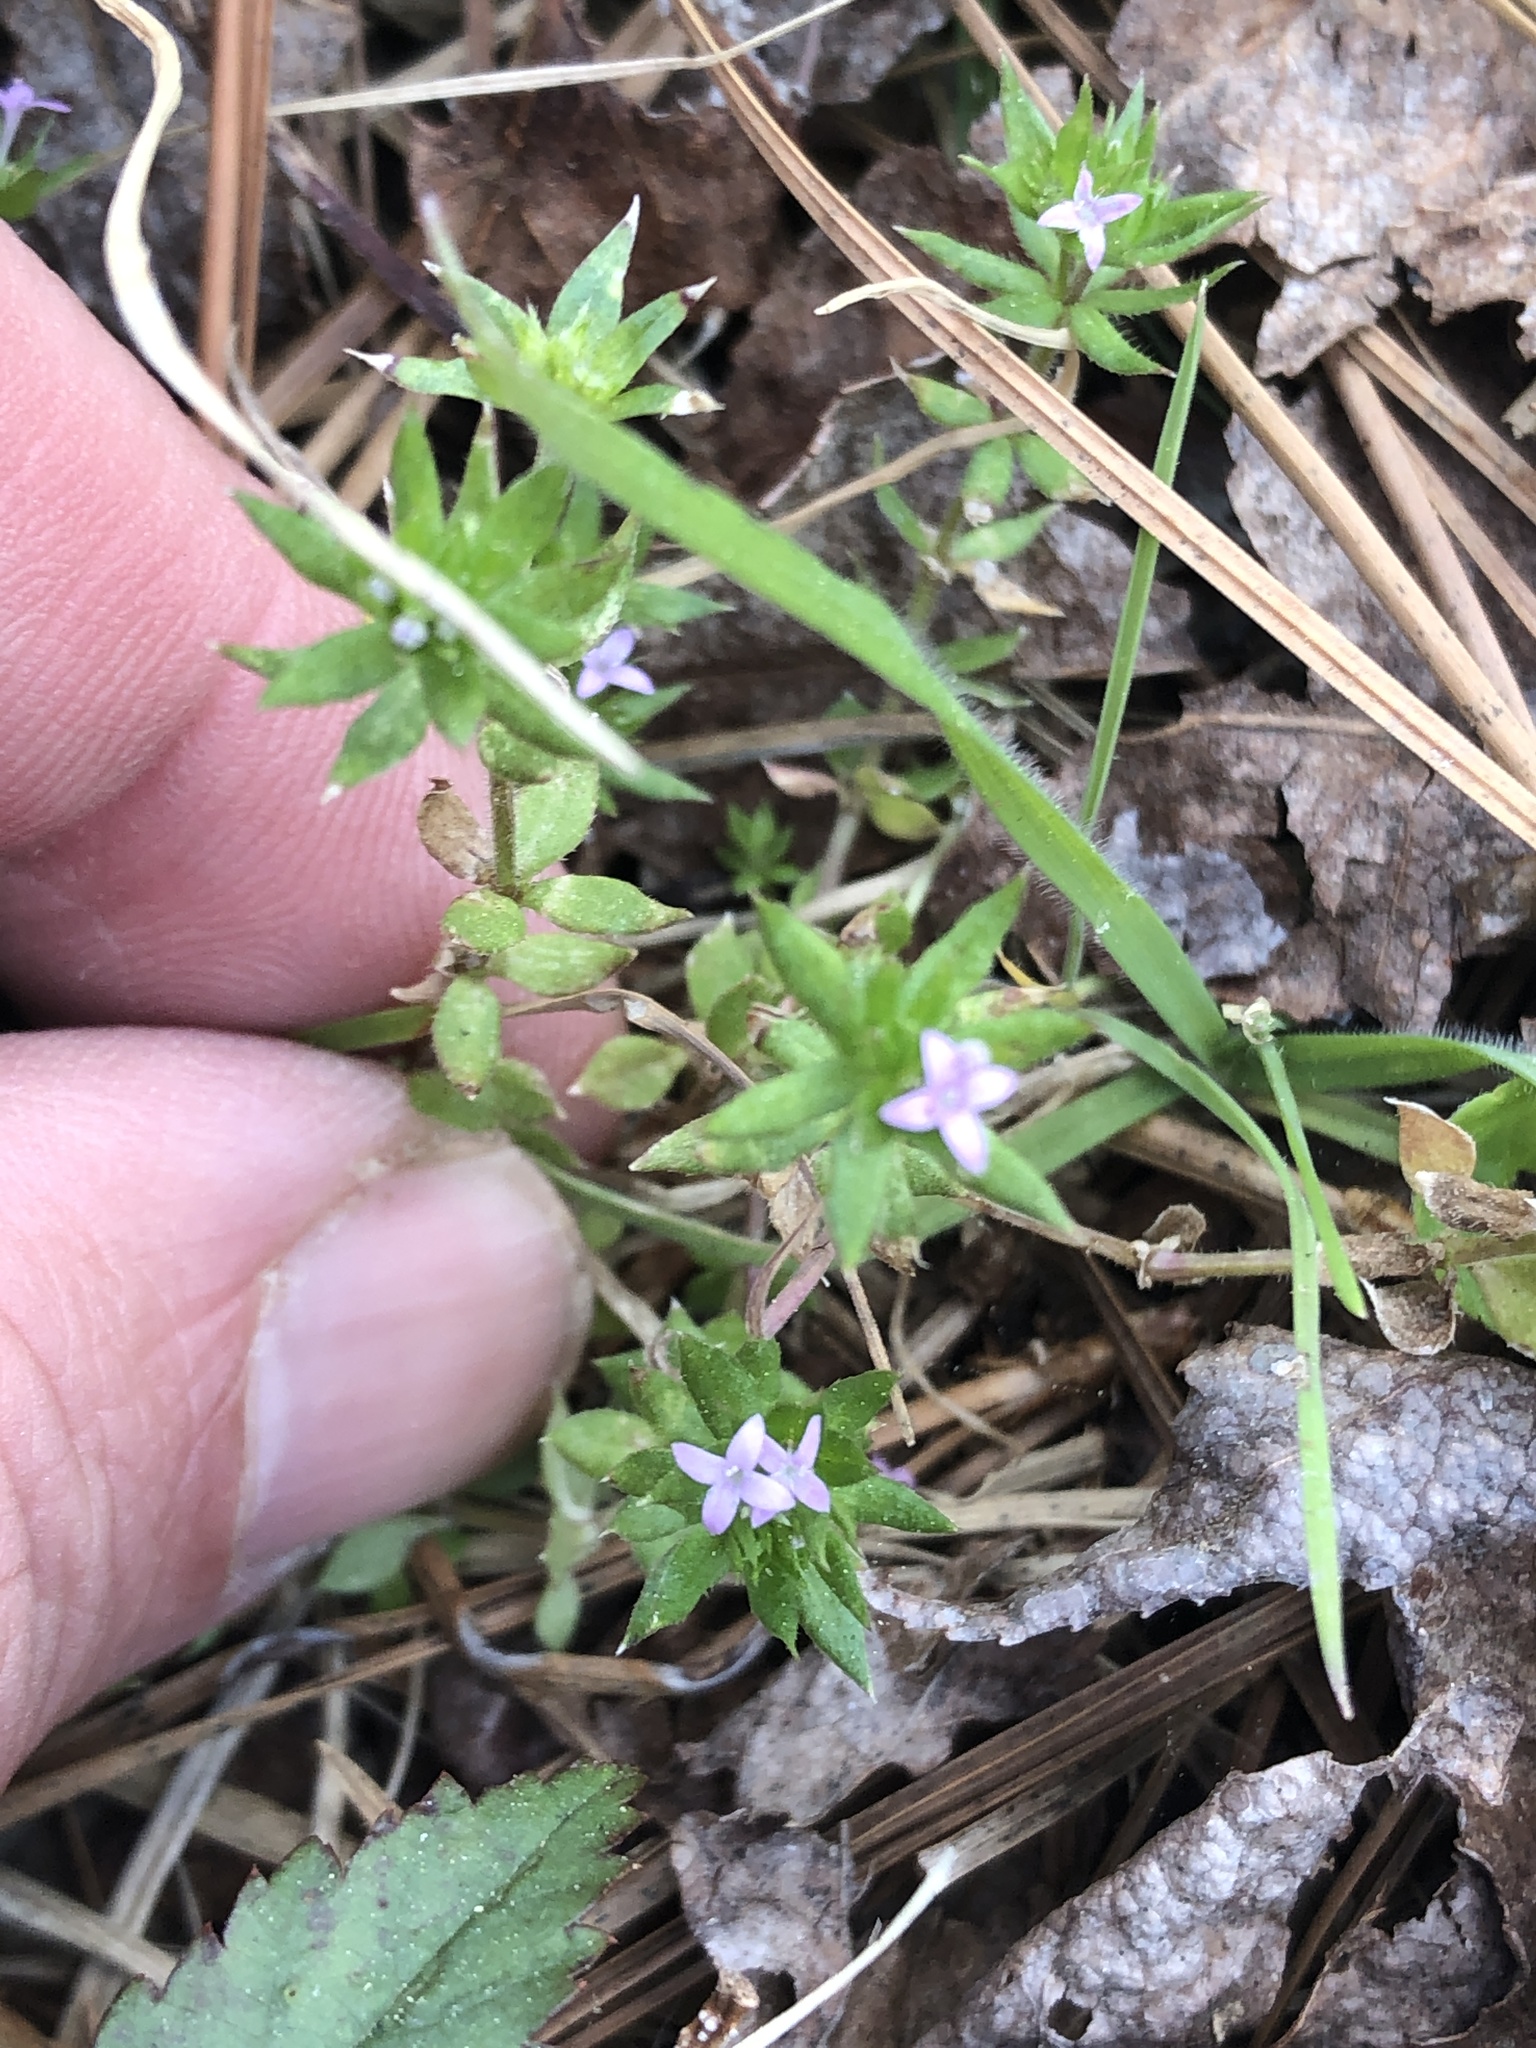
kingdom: Plantae
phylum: Tracheophyta
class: Magnoliopsida
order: Gentianales
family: Rubiaceae
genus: Sherardia
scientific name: Sherardia arvensis
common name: Field madder
